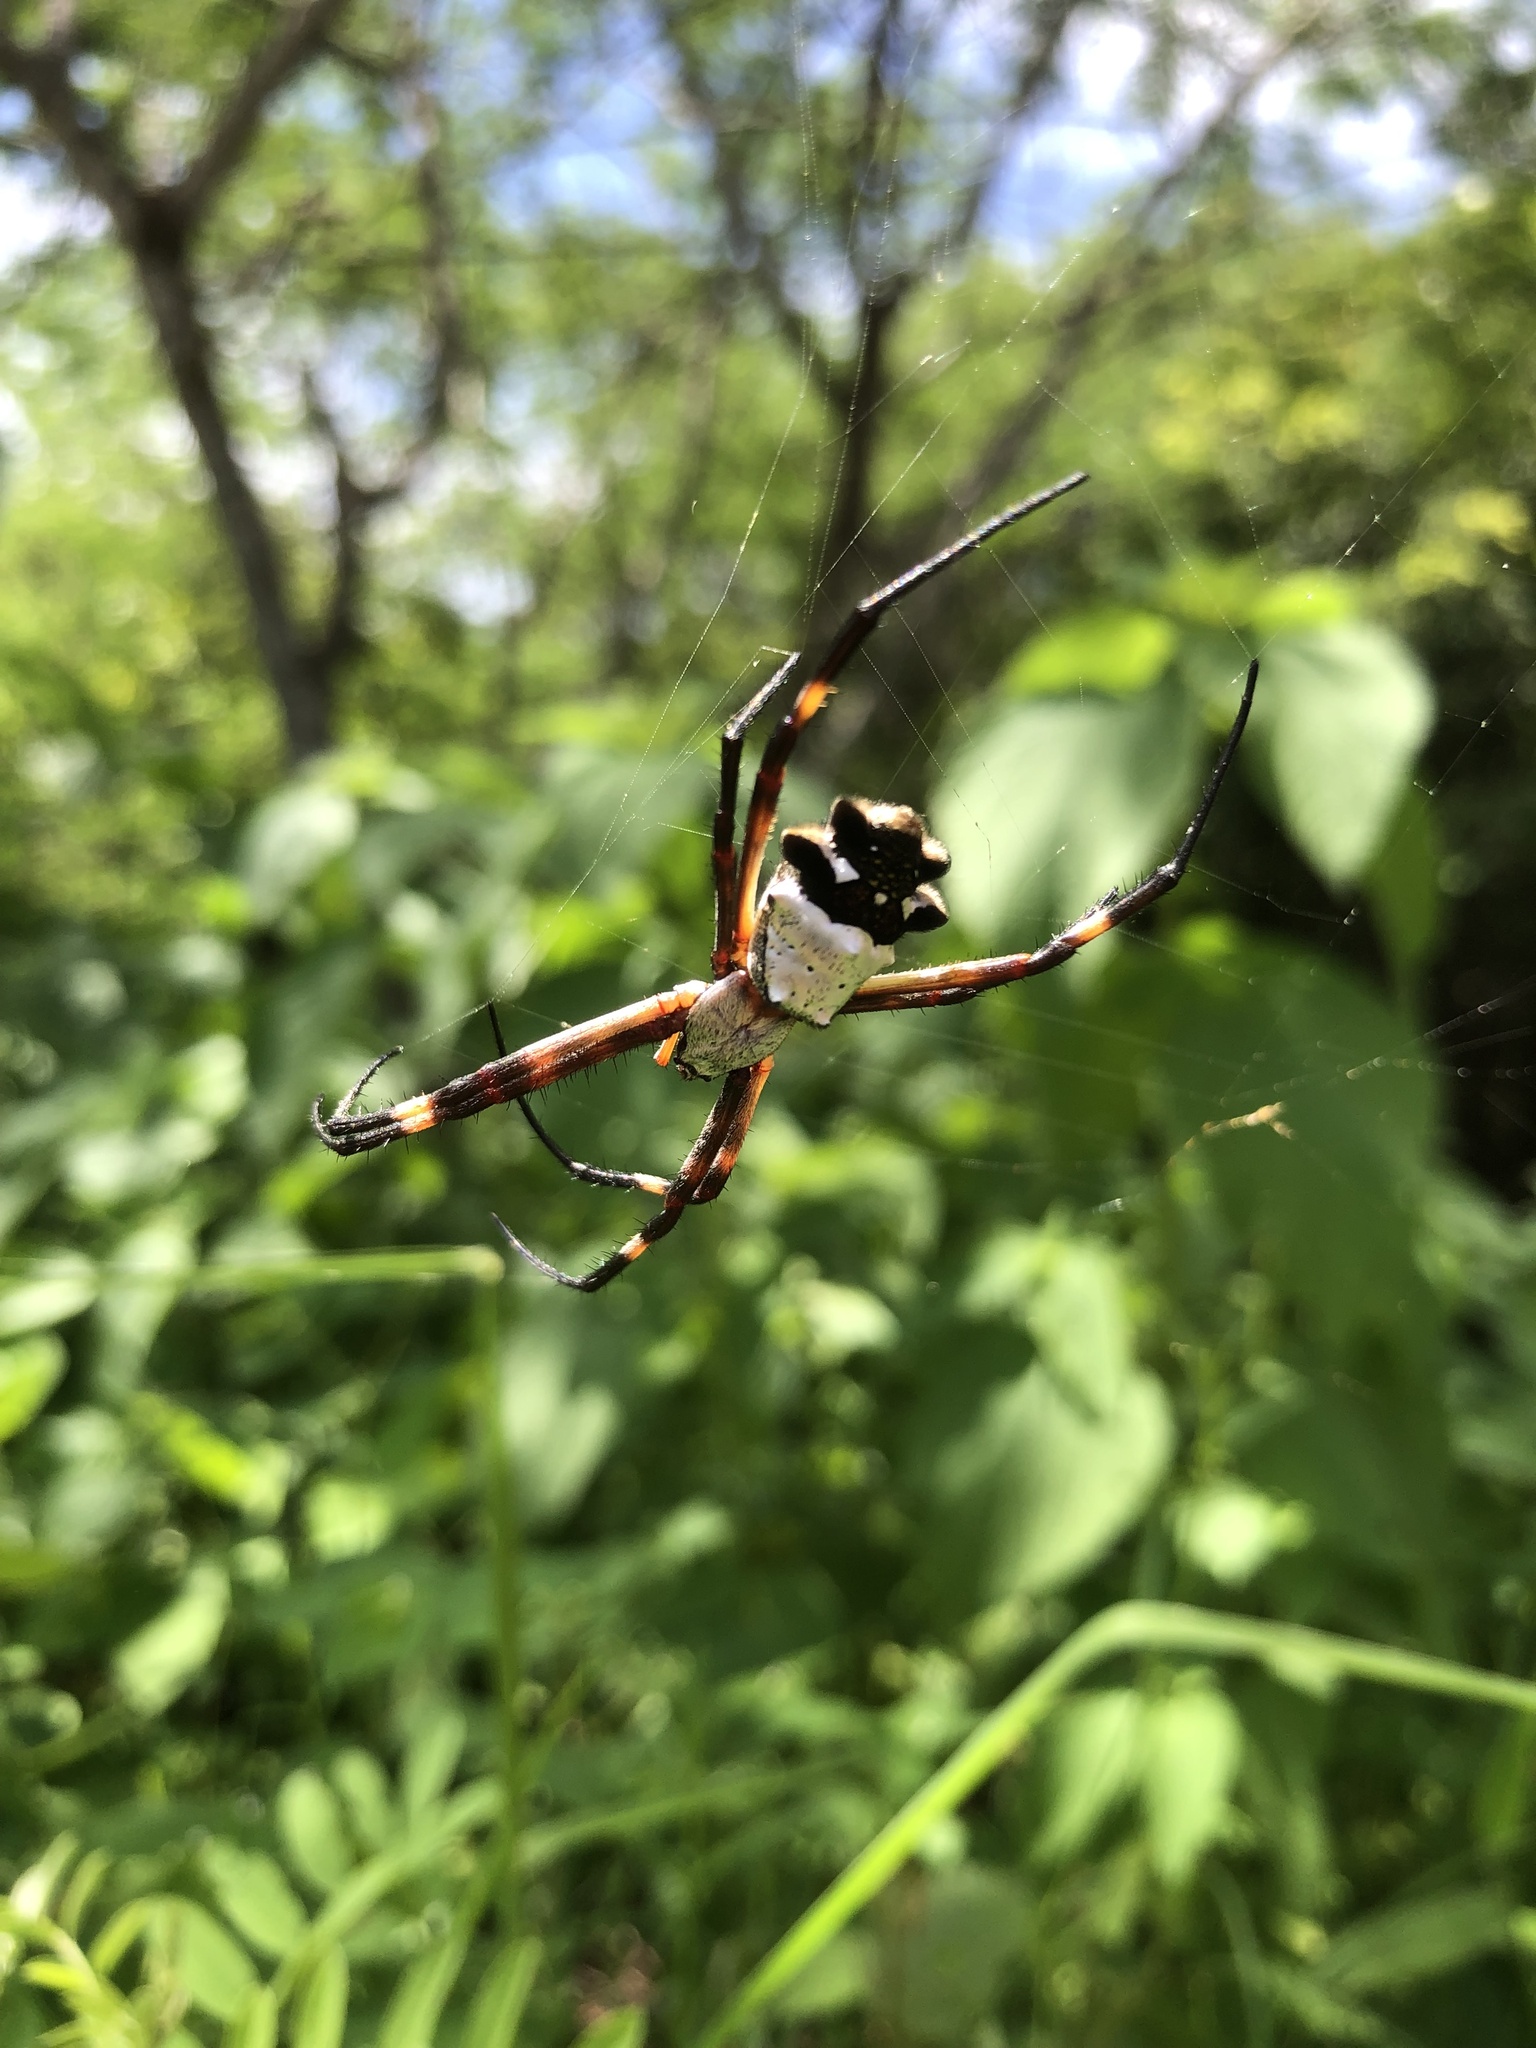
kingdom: Animalia
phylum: Arthropoda
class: Arachnida
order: Araneae
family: Araneidae
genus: Argiope
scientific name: Argiope argentata
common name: Orb weavers
